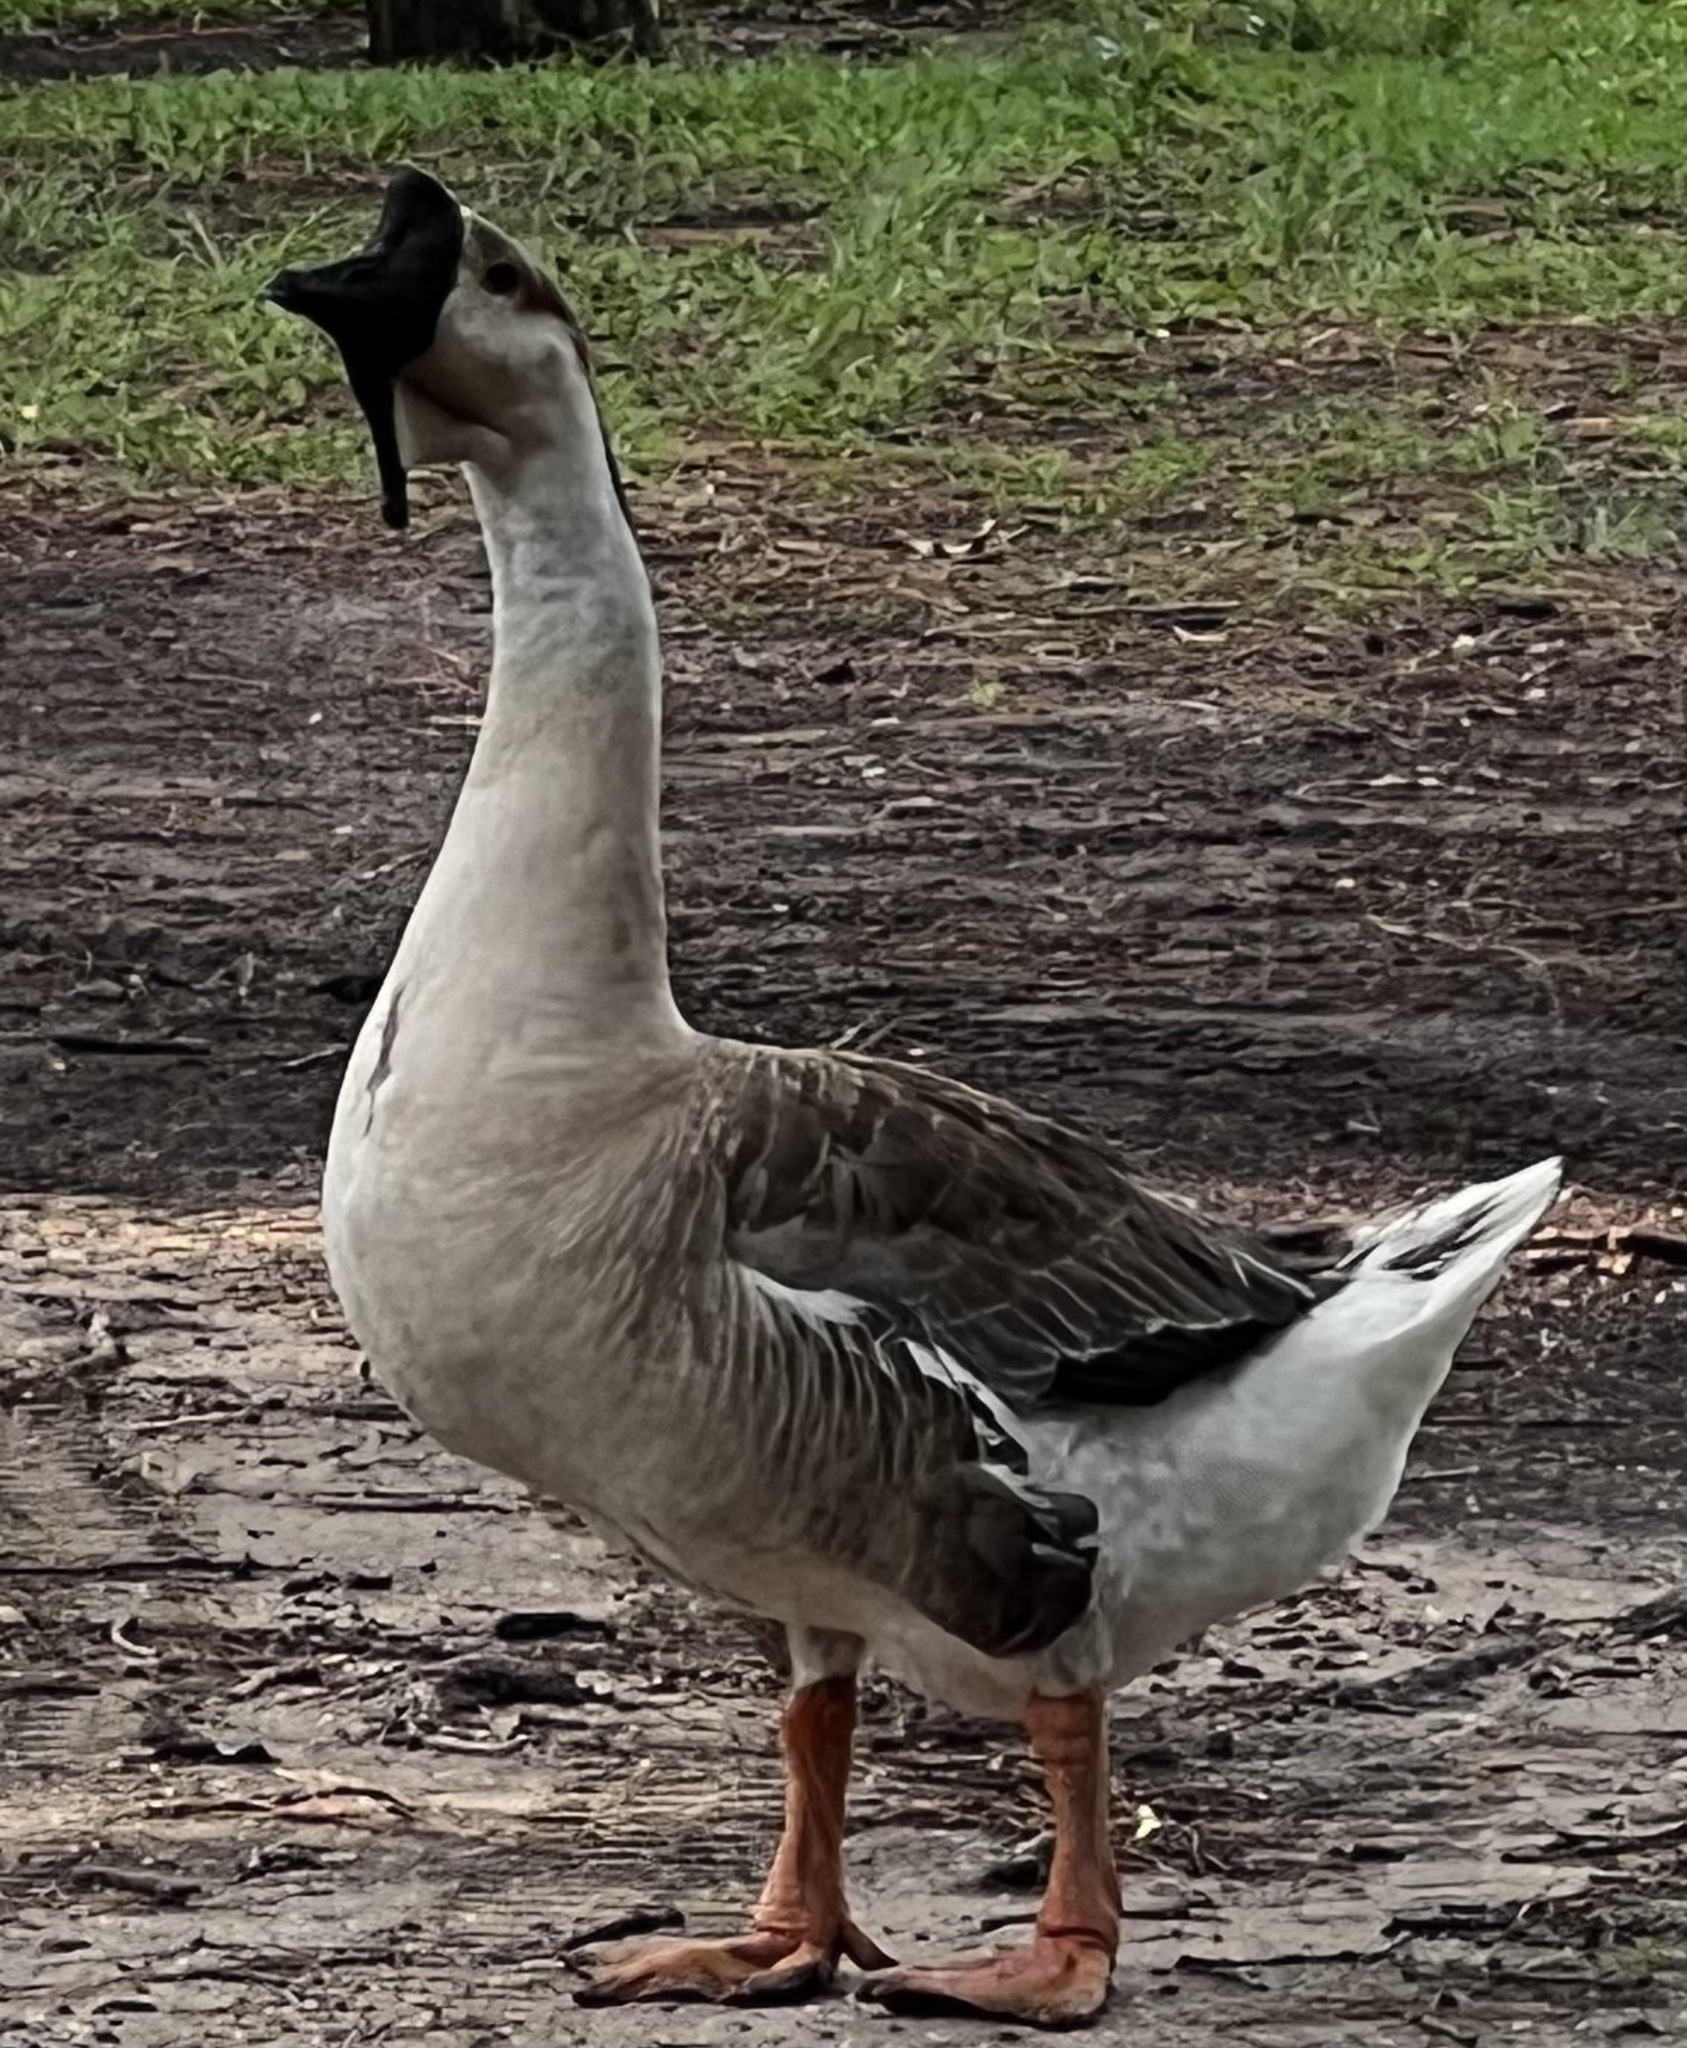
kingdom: Animalia
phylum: Chordata
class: Aves
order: Anseriformes
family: Anatidae
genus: Anser
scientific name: Anser cygnoides
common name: Swan goose
